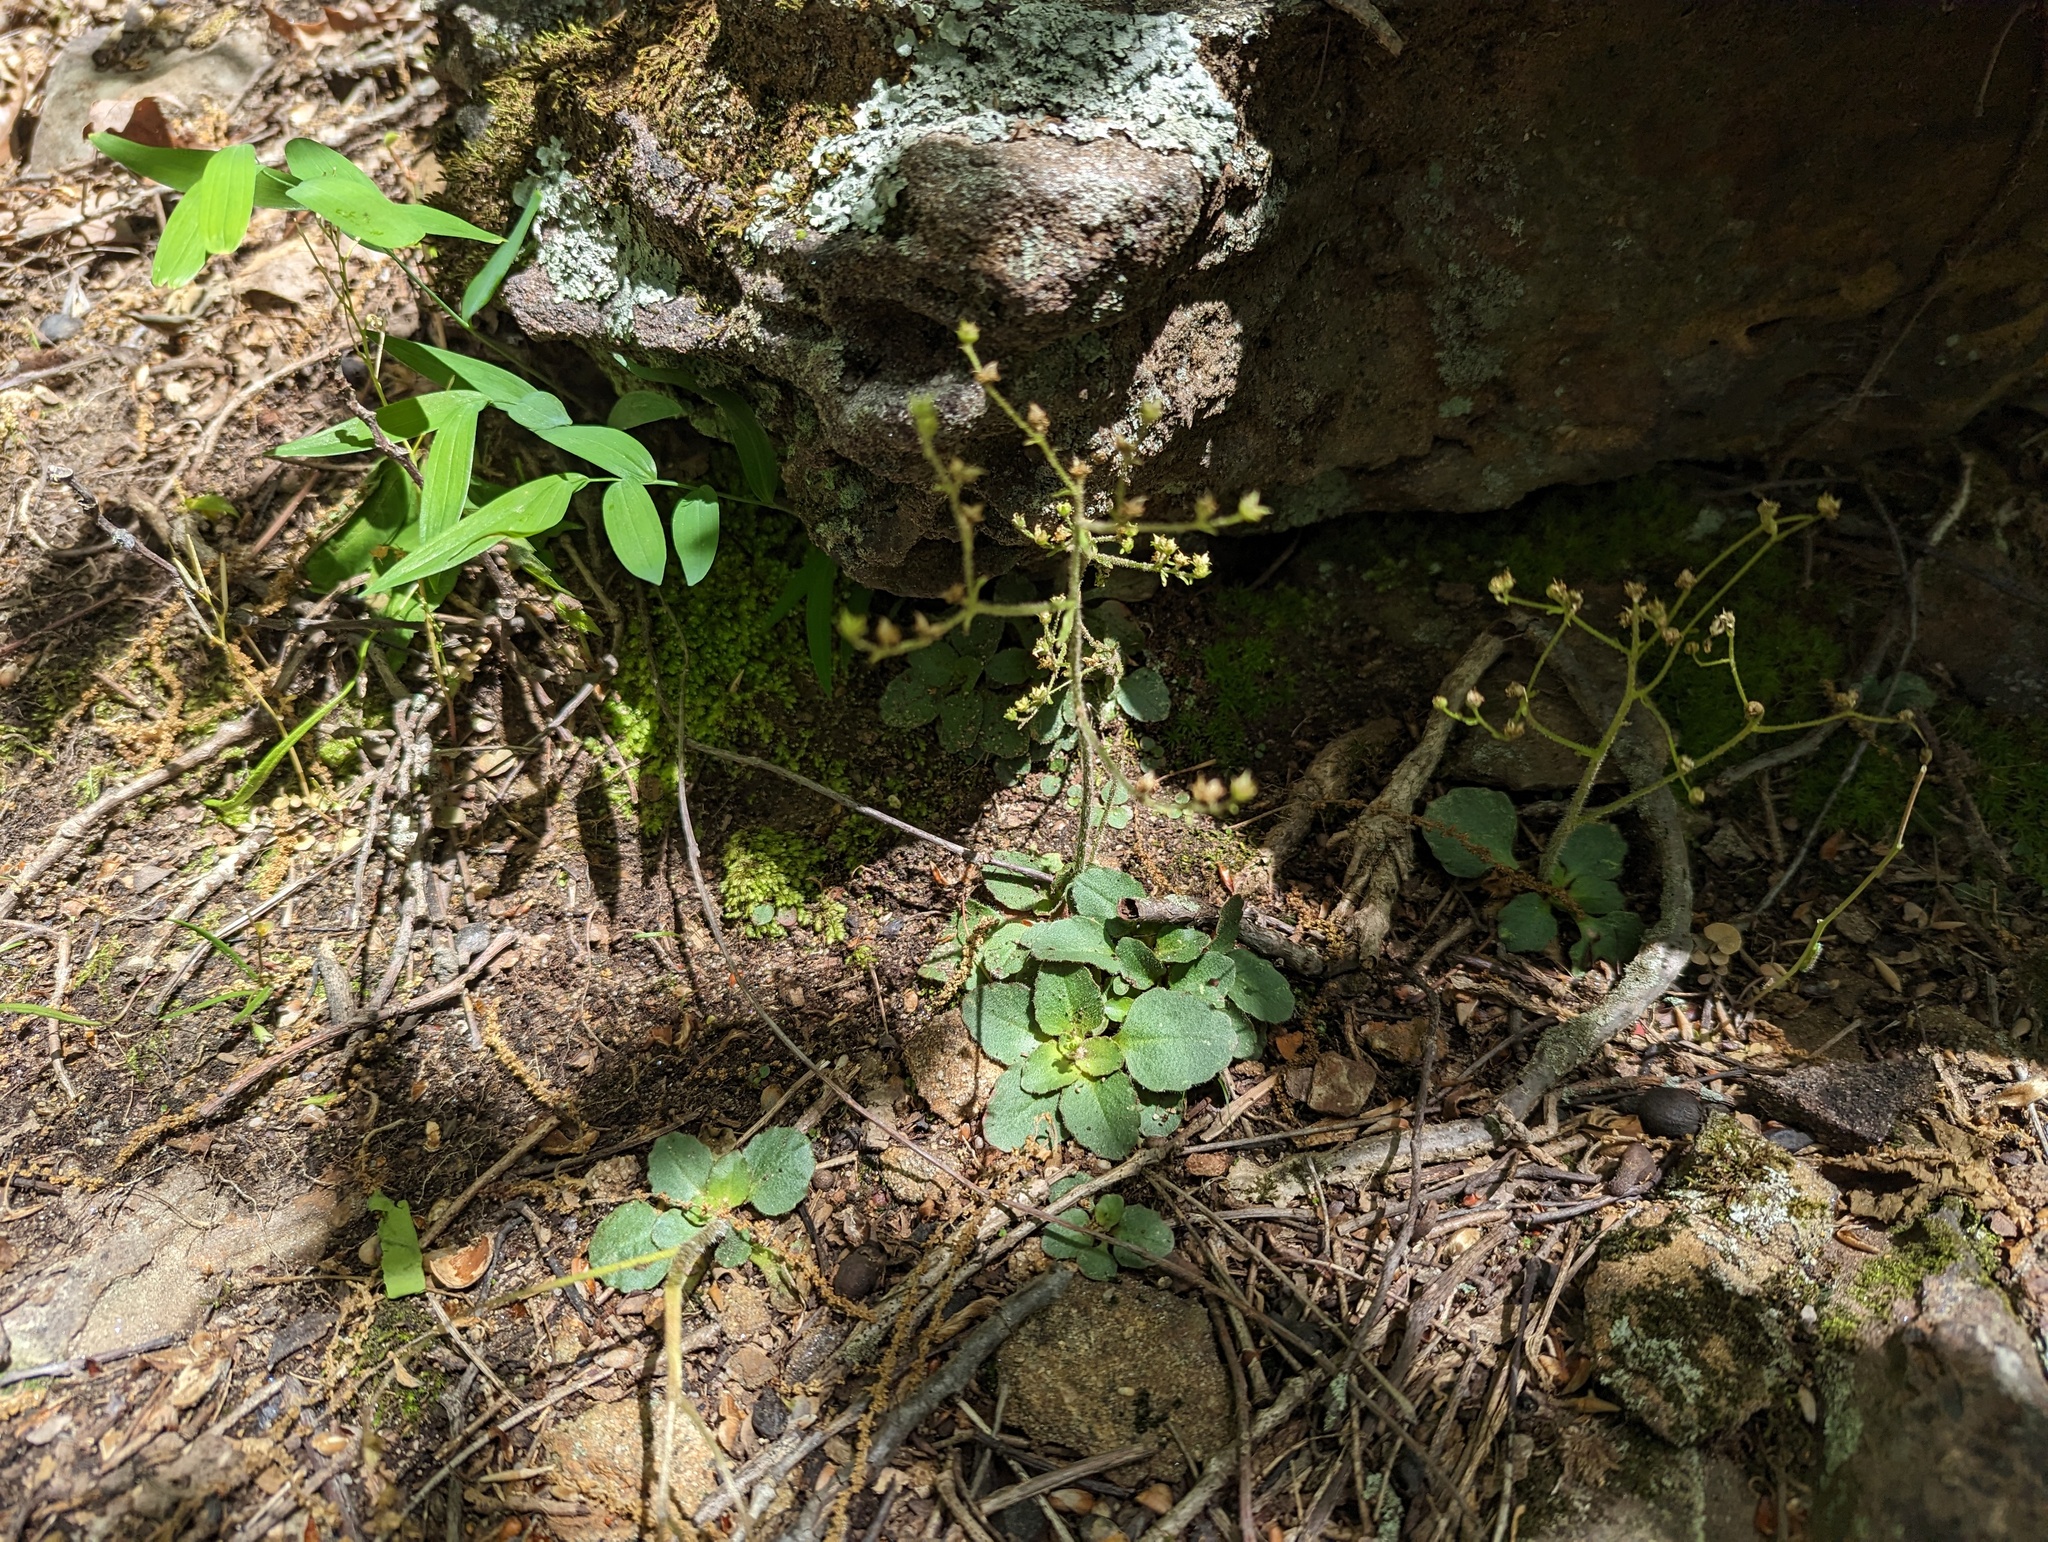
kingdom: Plantae
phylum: Tracheophyta
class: Magnoliopsida
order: Saxifragales
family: Saxifragaceae
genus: Micranthes
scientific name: Micranthes virginiensis
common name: Early saxifrage
